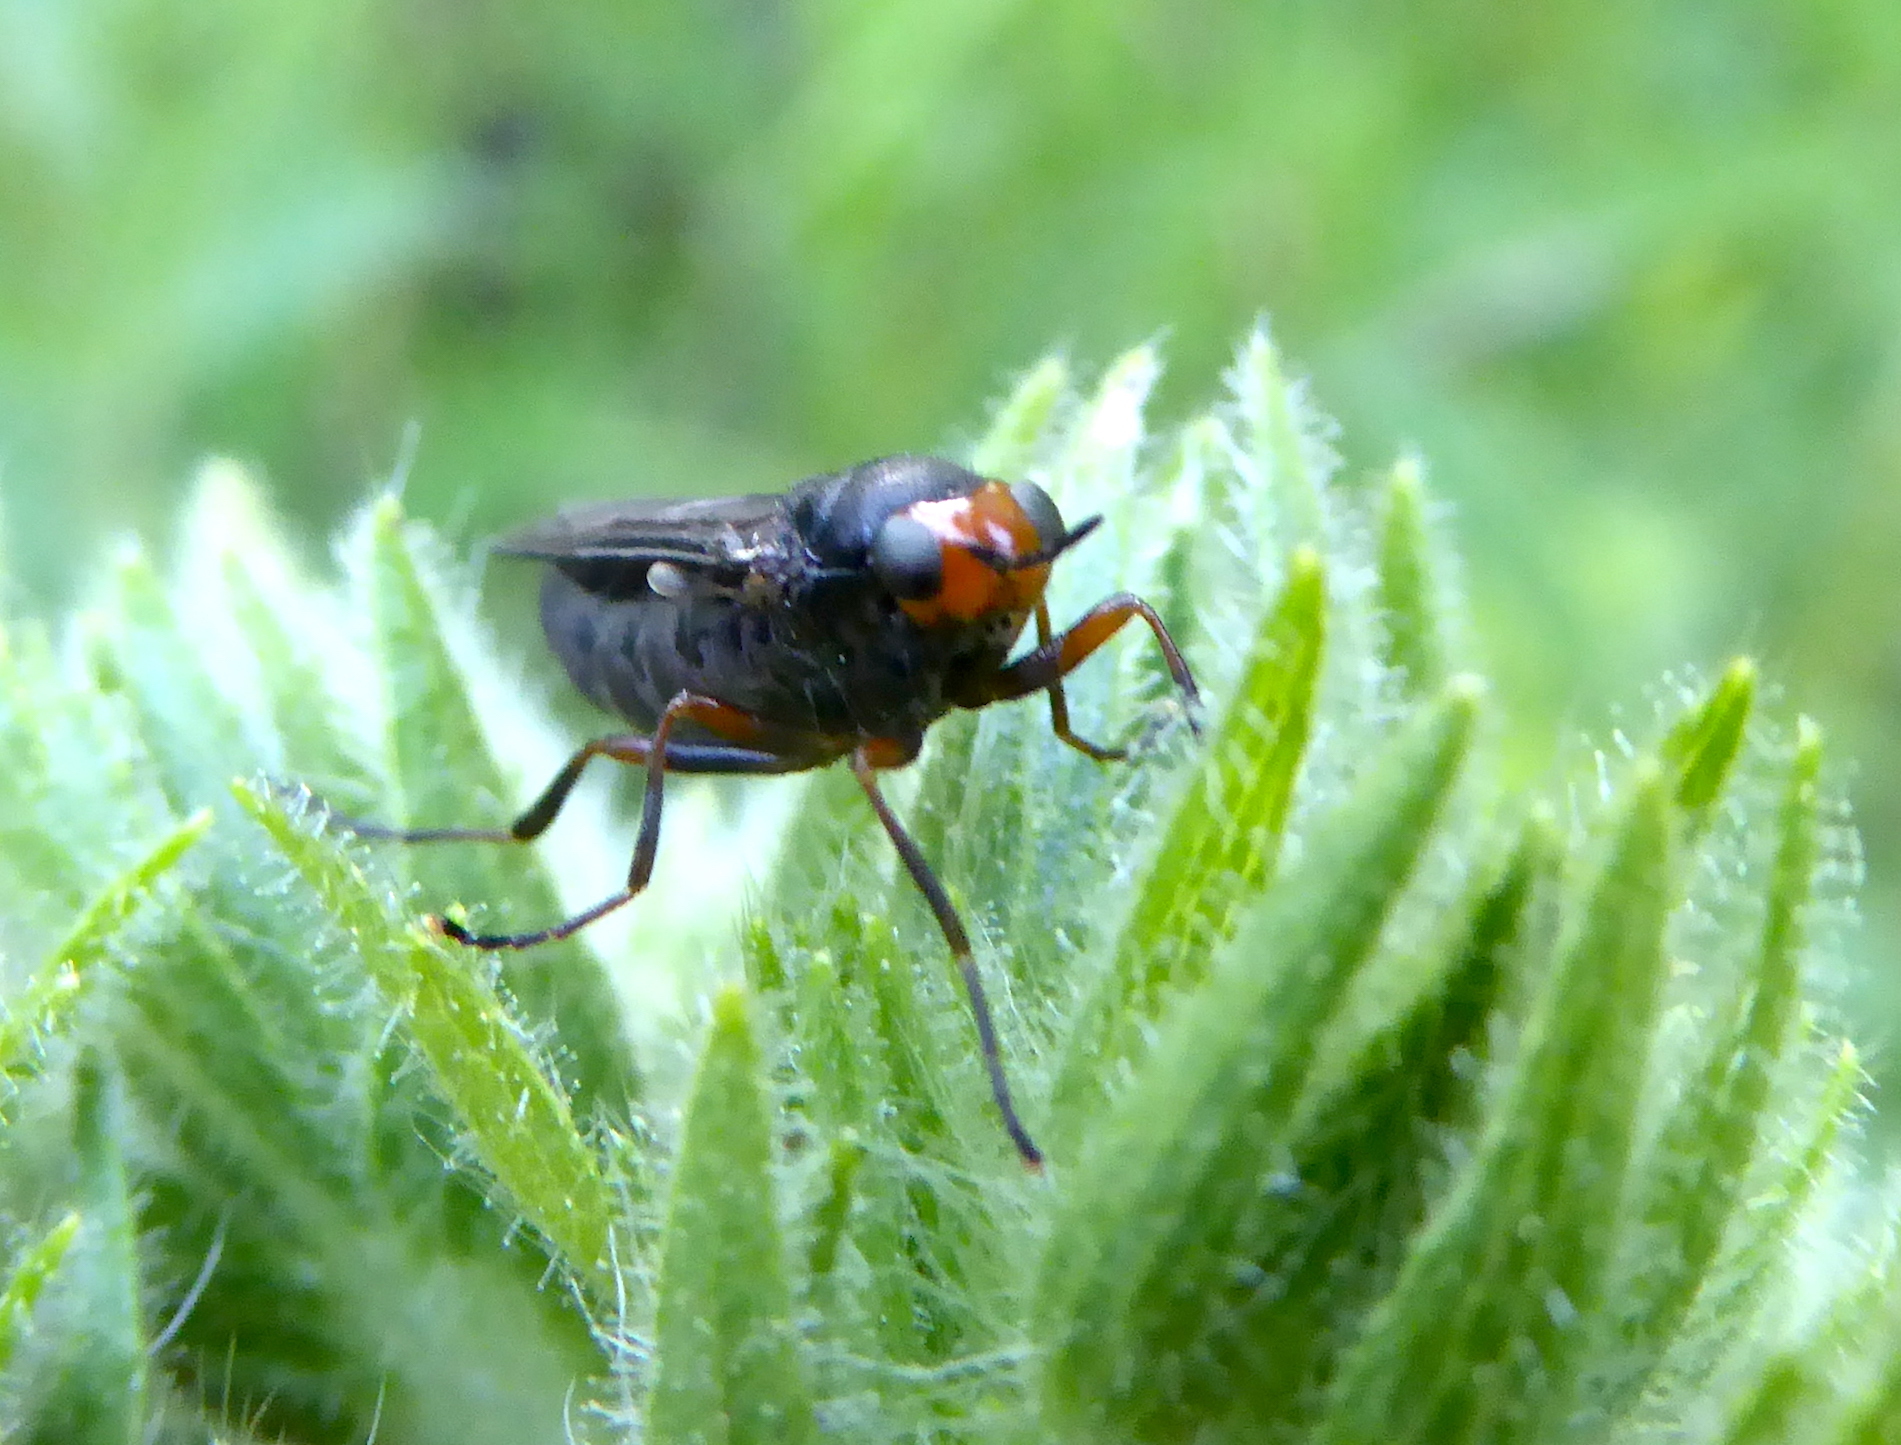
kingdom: Animalia
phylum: Arthropoda
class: Insecta
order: Diptera
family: Stratiomyidae
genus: Inopus
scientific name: Inopus rubriceps
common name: Soldier fly
